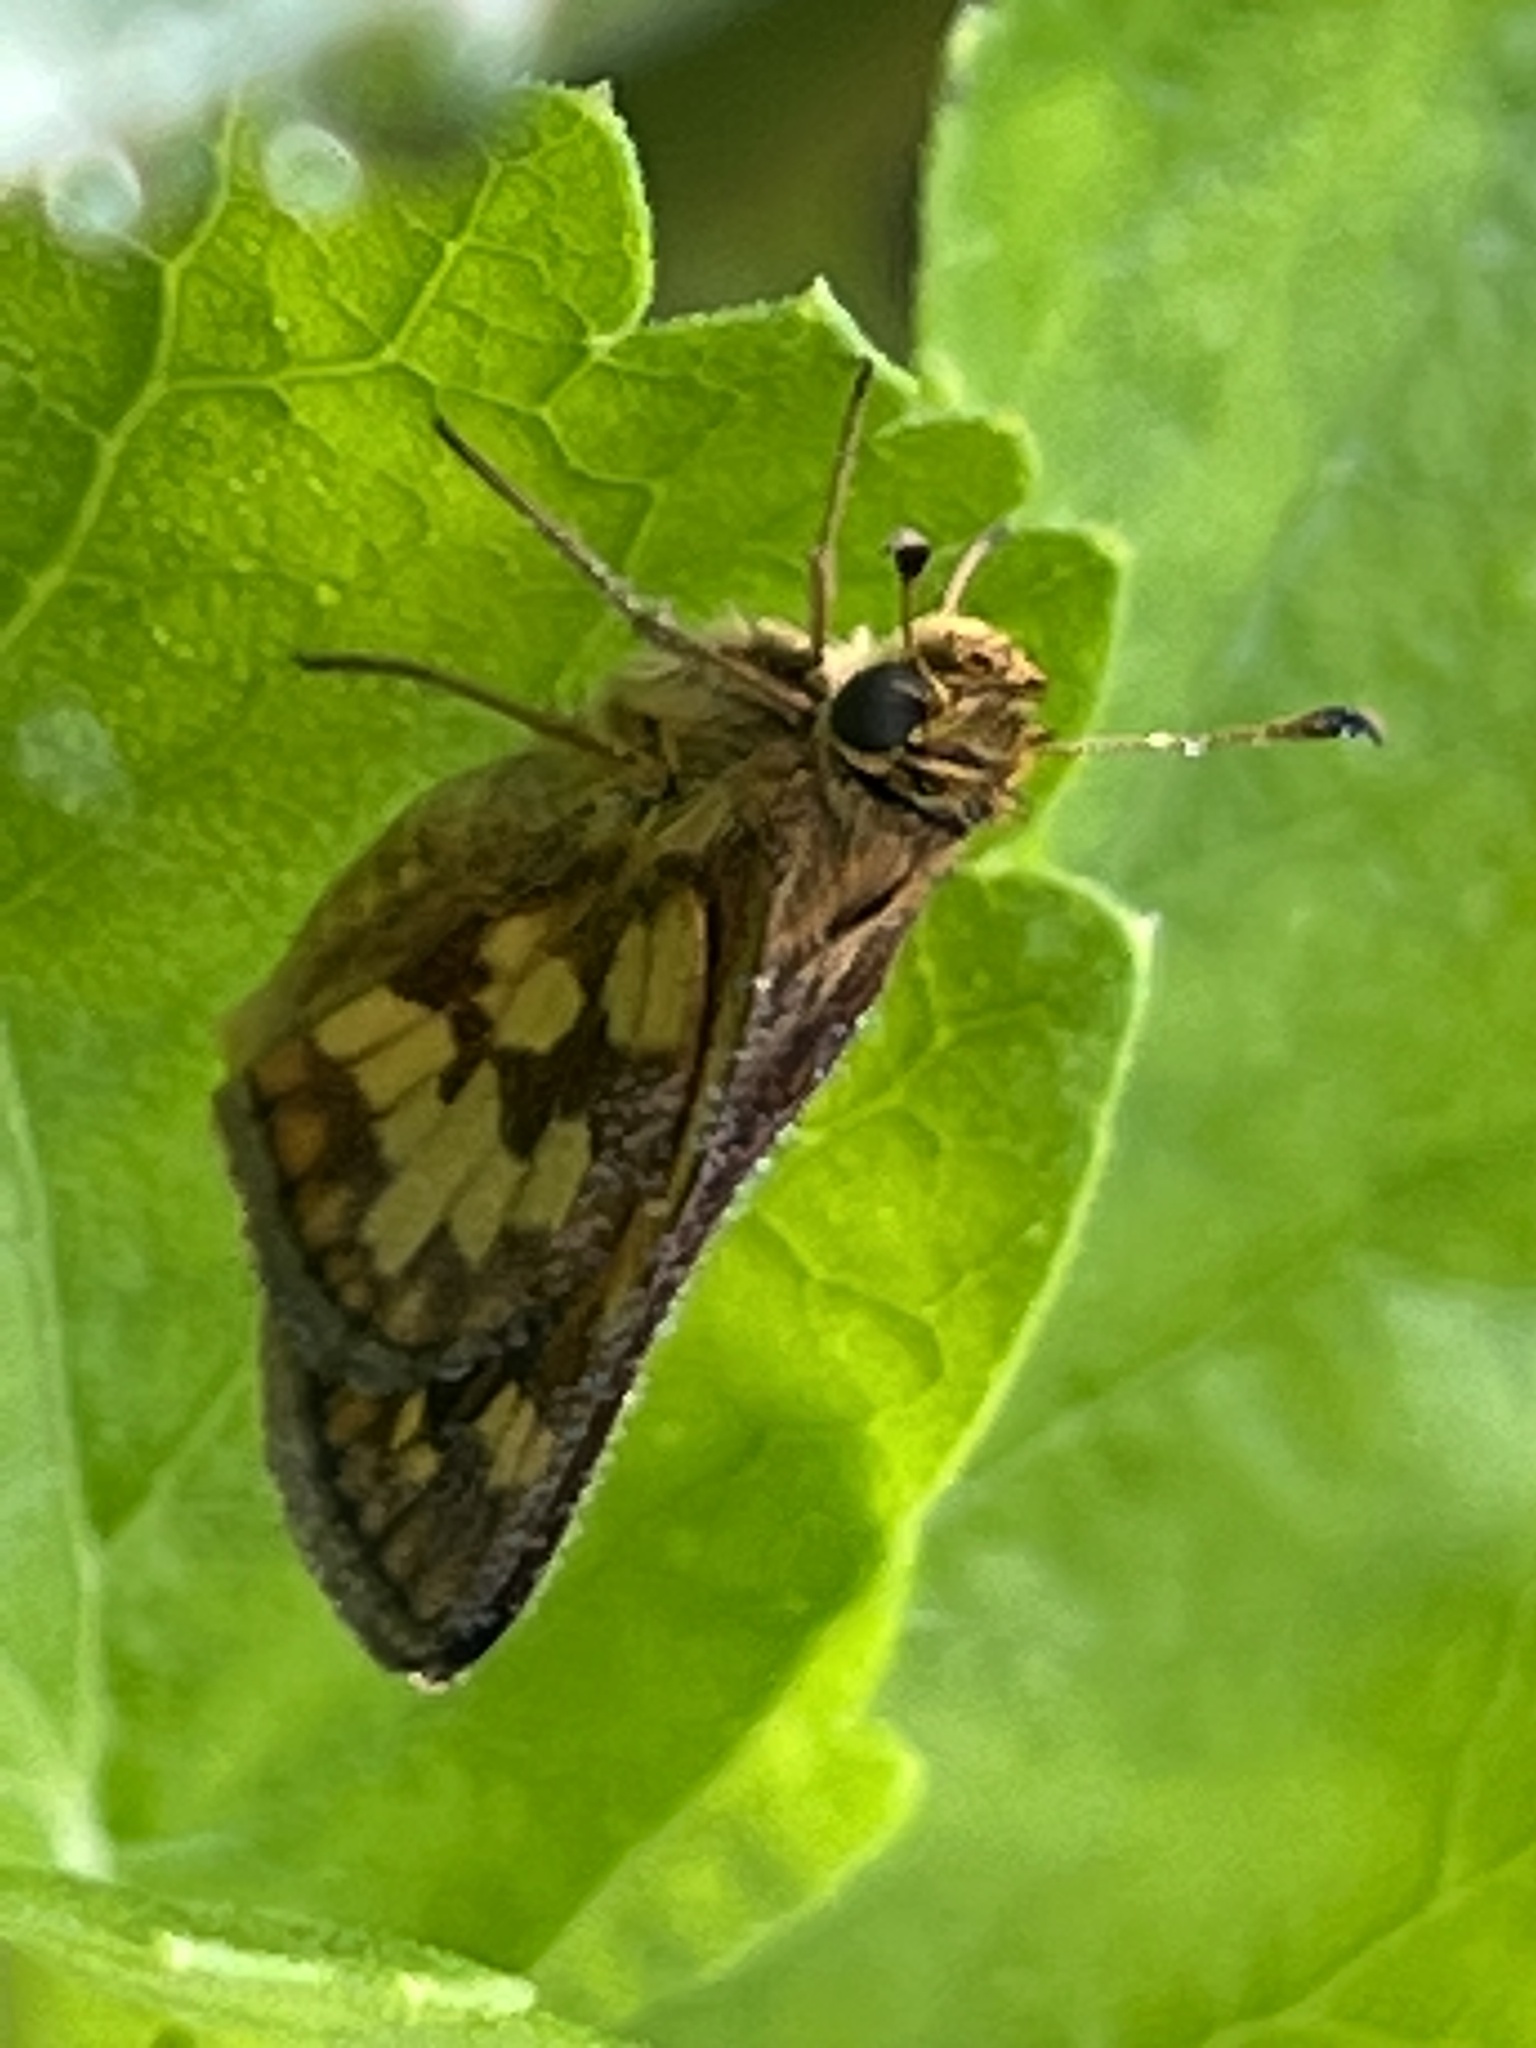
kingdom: Animalia
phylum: Arthropoda
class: Insecta
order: Lepidoptera
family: Hesperiidae
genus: Polites
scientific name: Polites coras
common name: Peck's skipper
